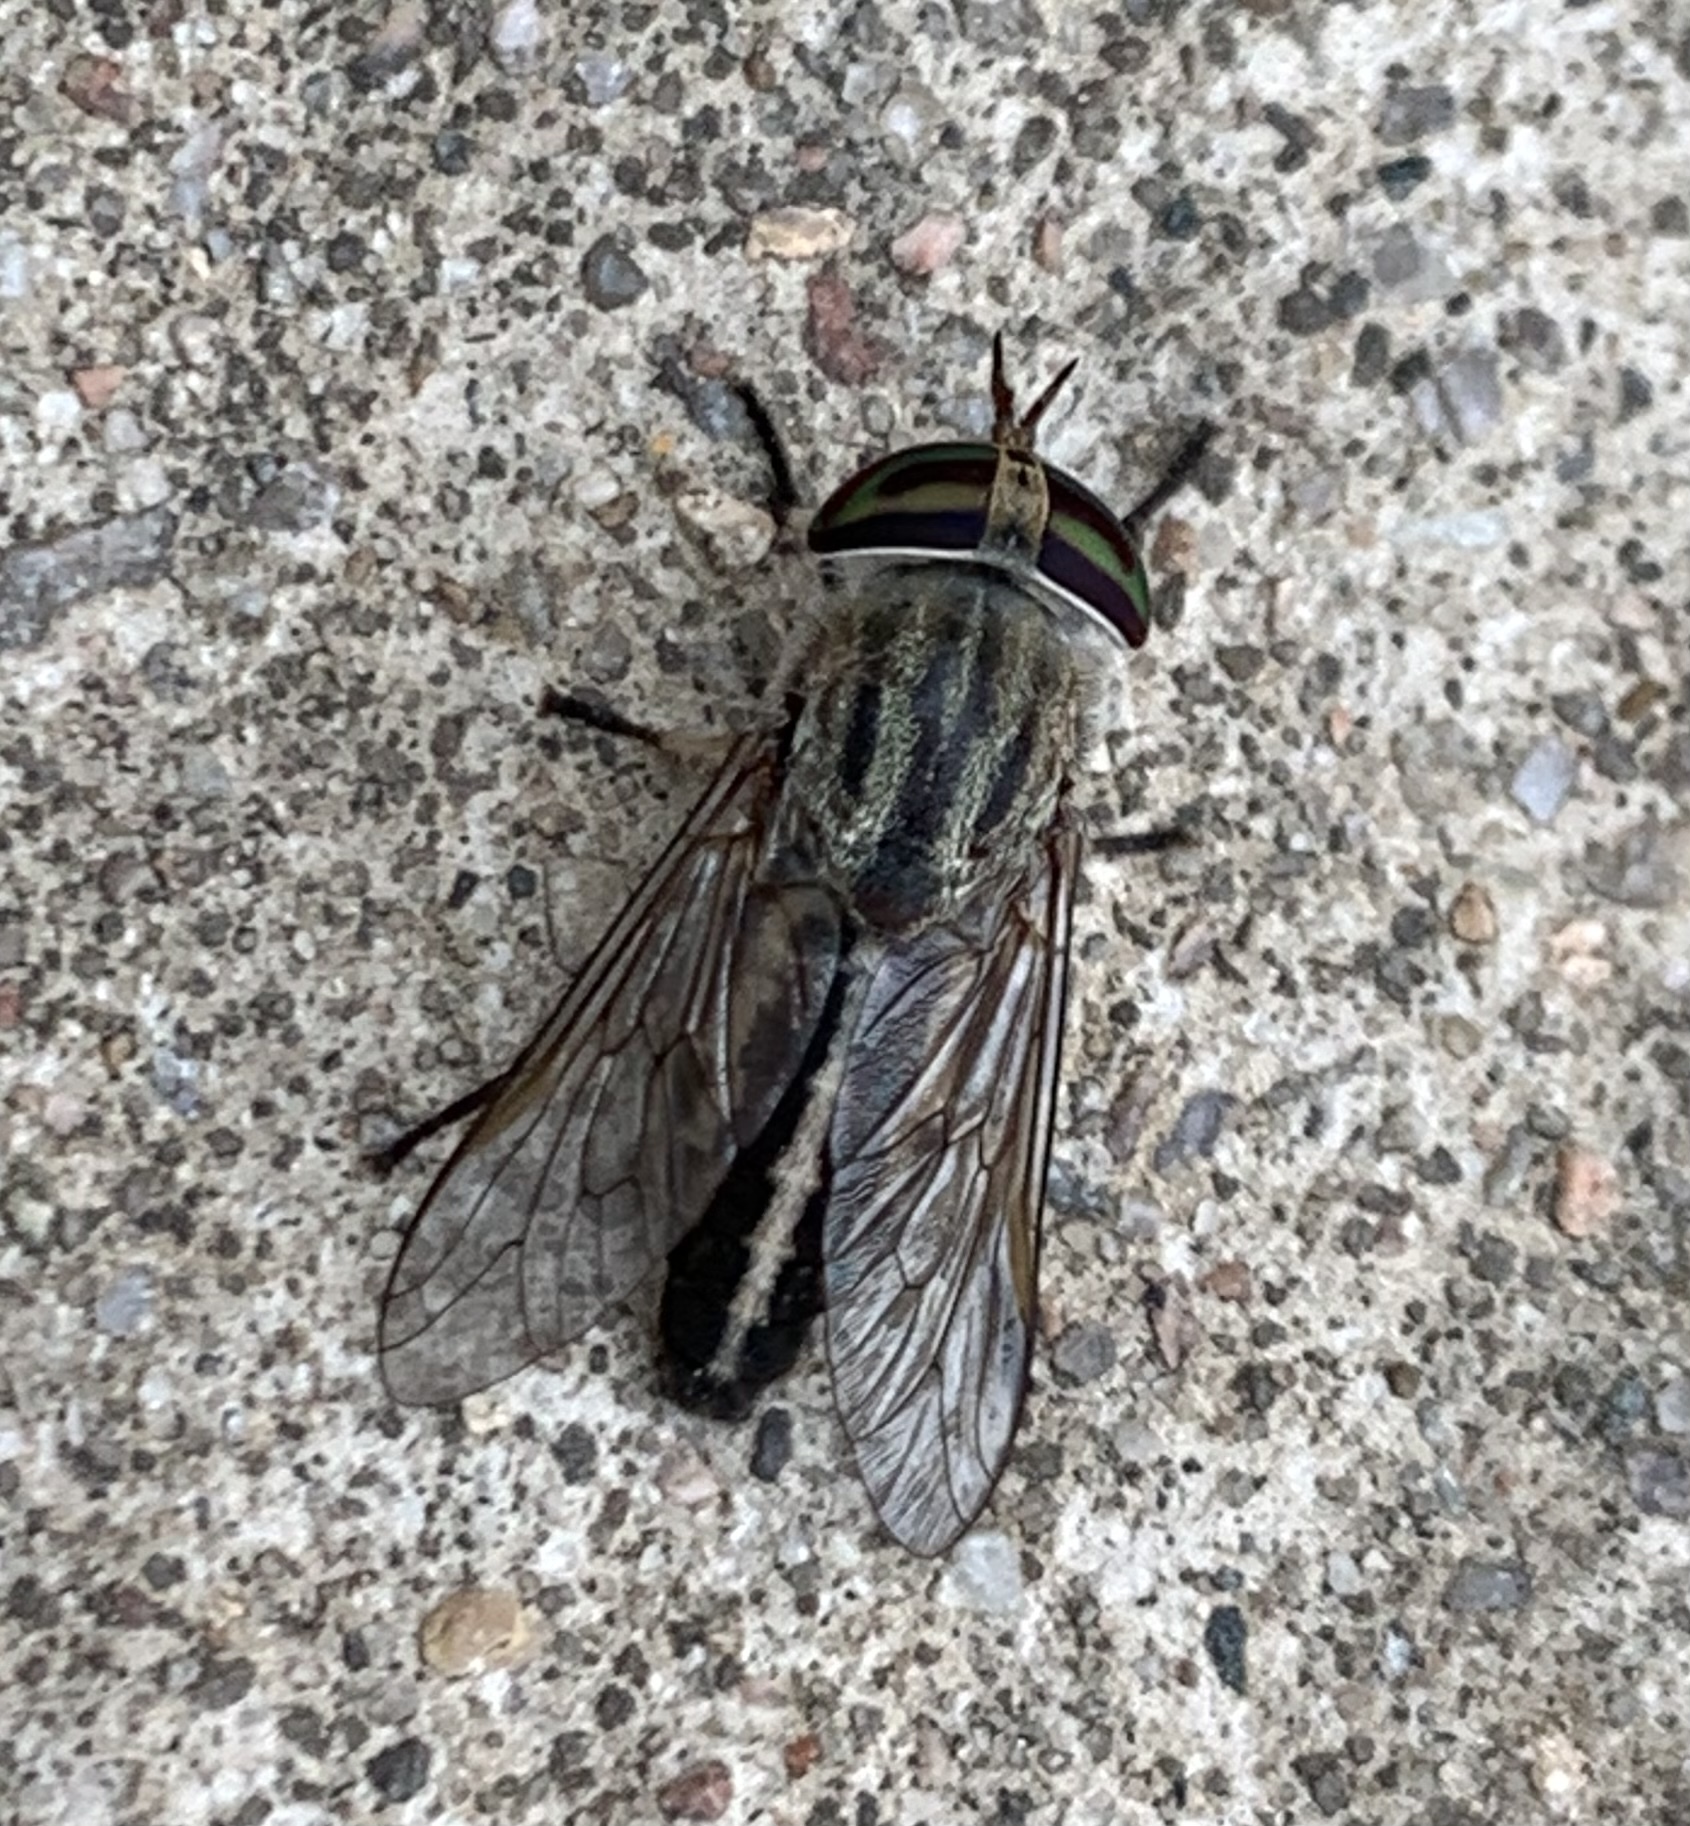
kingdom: Animalia
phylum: Arthropoda
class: Insecta
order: Diptera
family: Tabanidae
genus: Tabanus
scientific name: Tabanus lineola
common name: Striped horse fly
